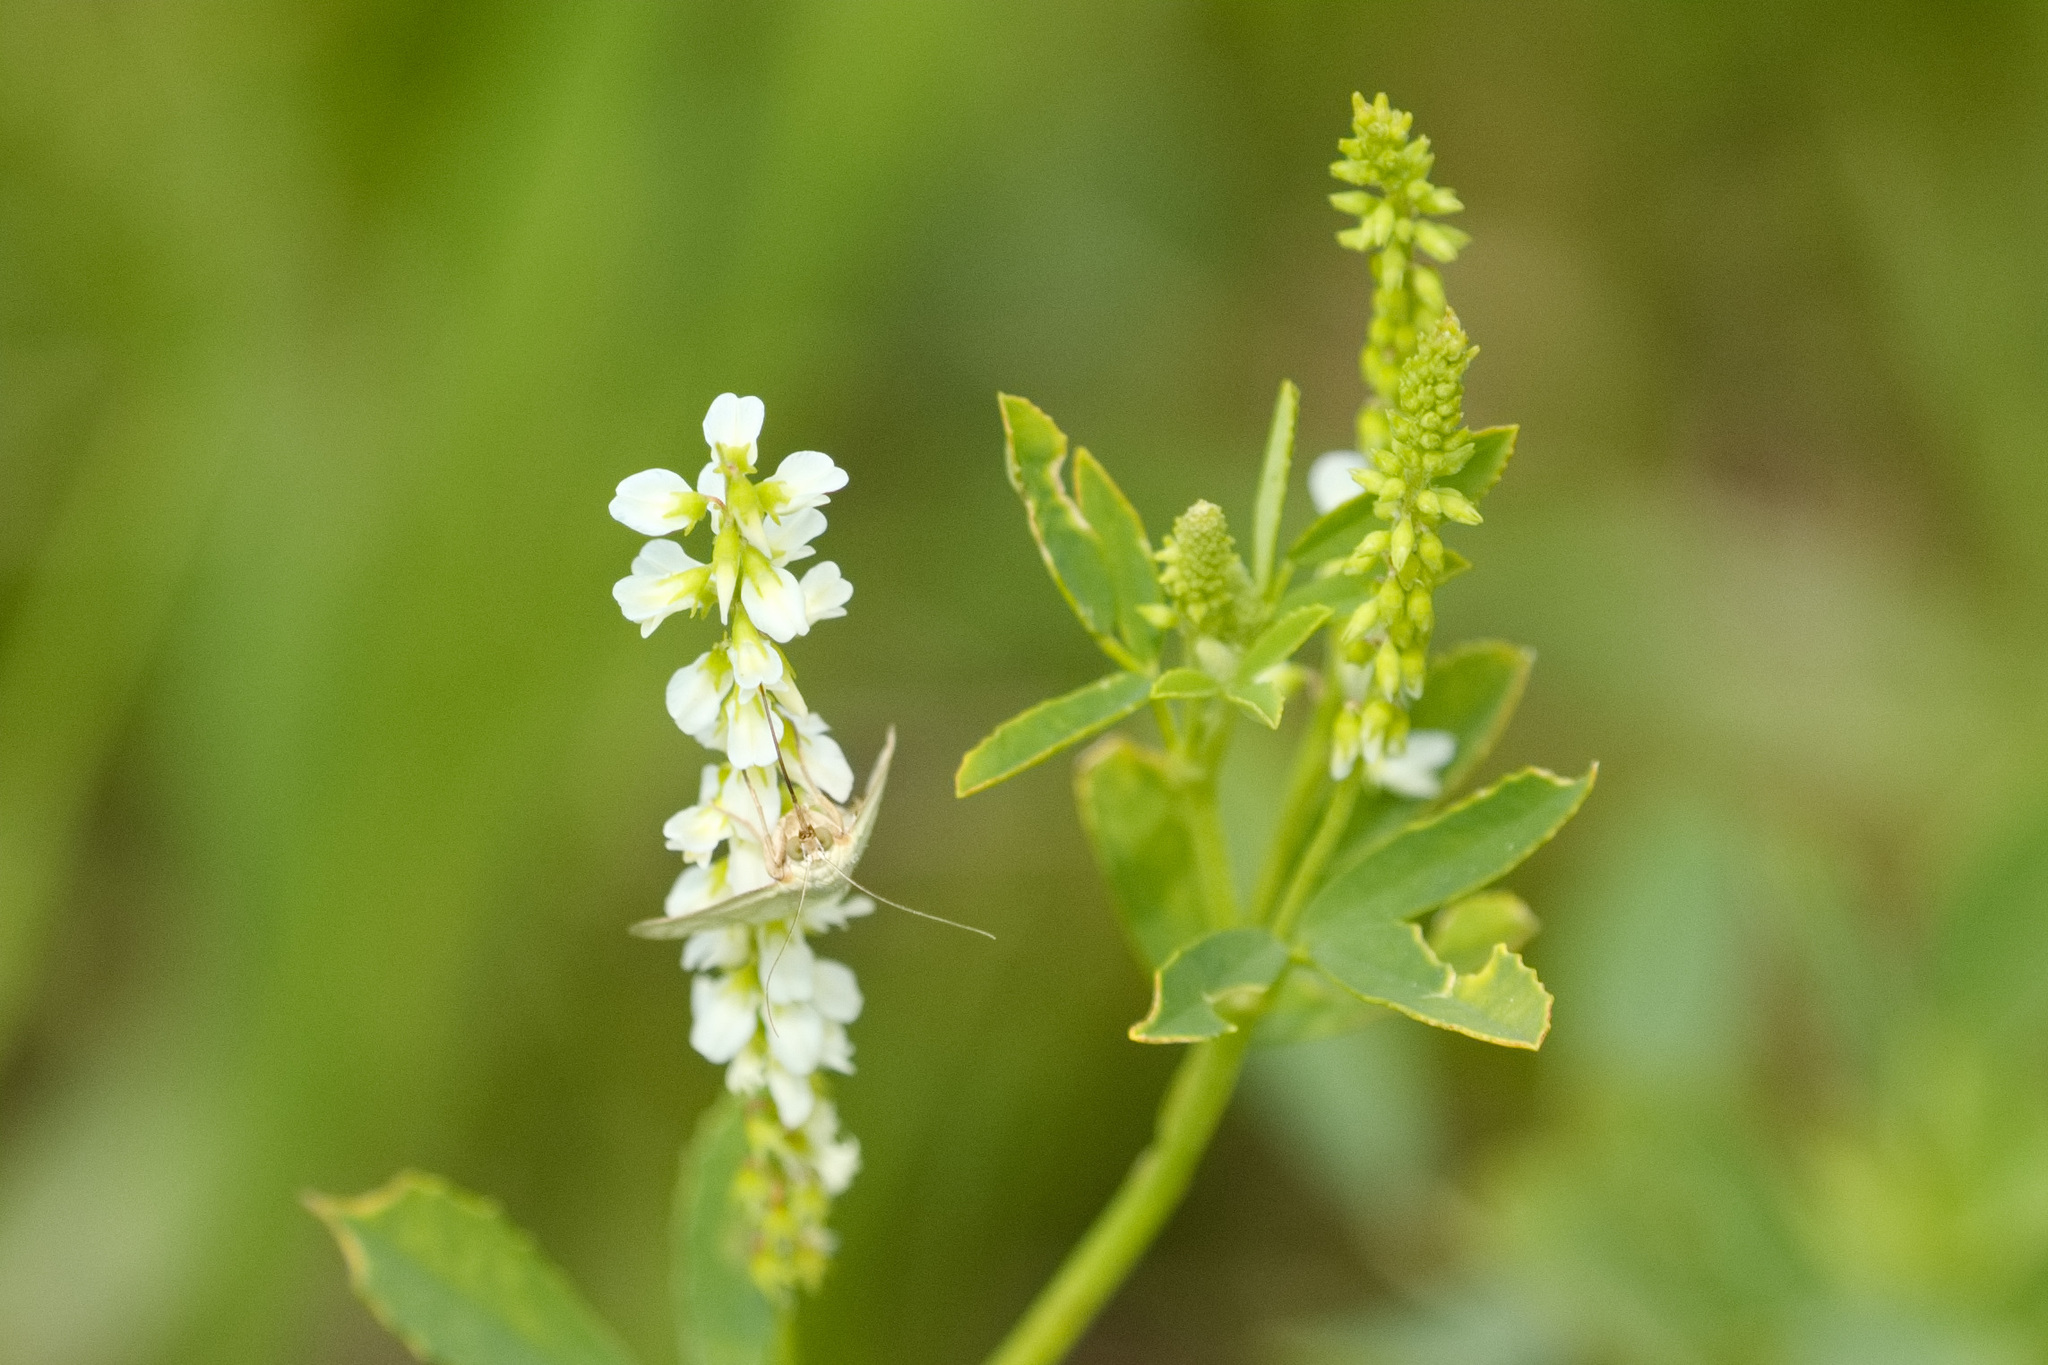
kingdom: Plantae
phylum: Tracheophyta
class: Magnoliopsida
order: Fabales
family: Fabaceae
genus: Melilotus
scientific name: Melilotus albus
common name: White melilot
